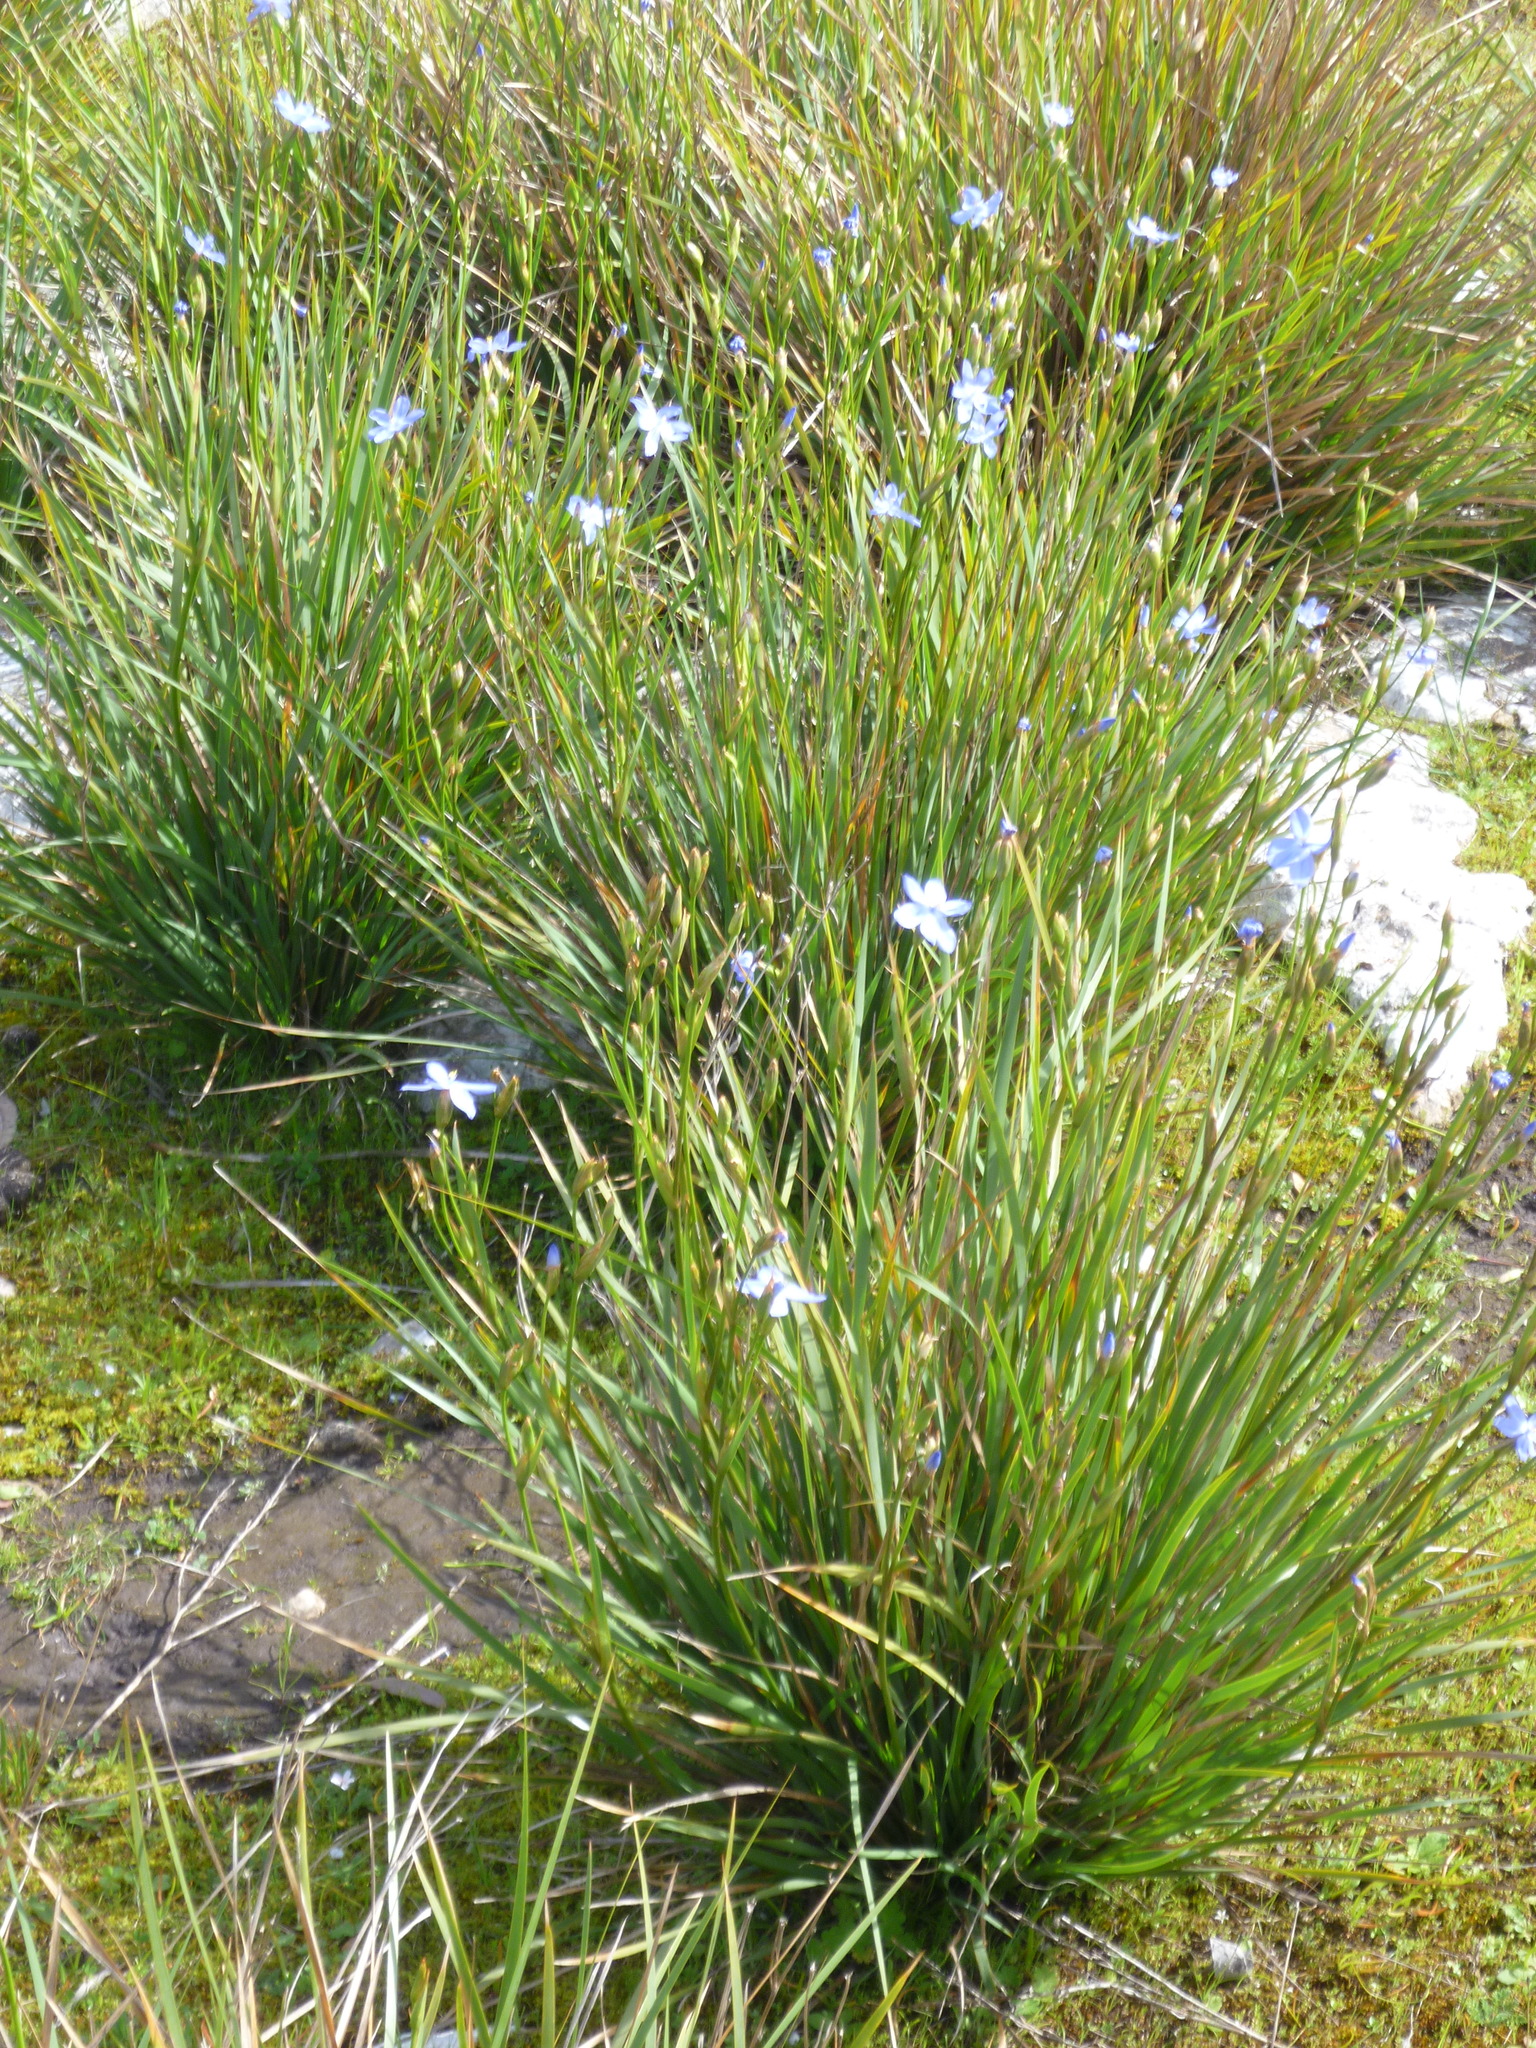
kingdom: Plantae
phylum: Tracheophyta
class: Liliopsida
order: Asparagales
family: Iridaceae
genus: Orthrosanthus
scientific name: Orthrosanthus multiflorus
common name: Morning-flag
